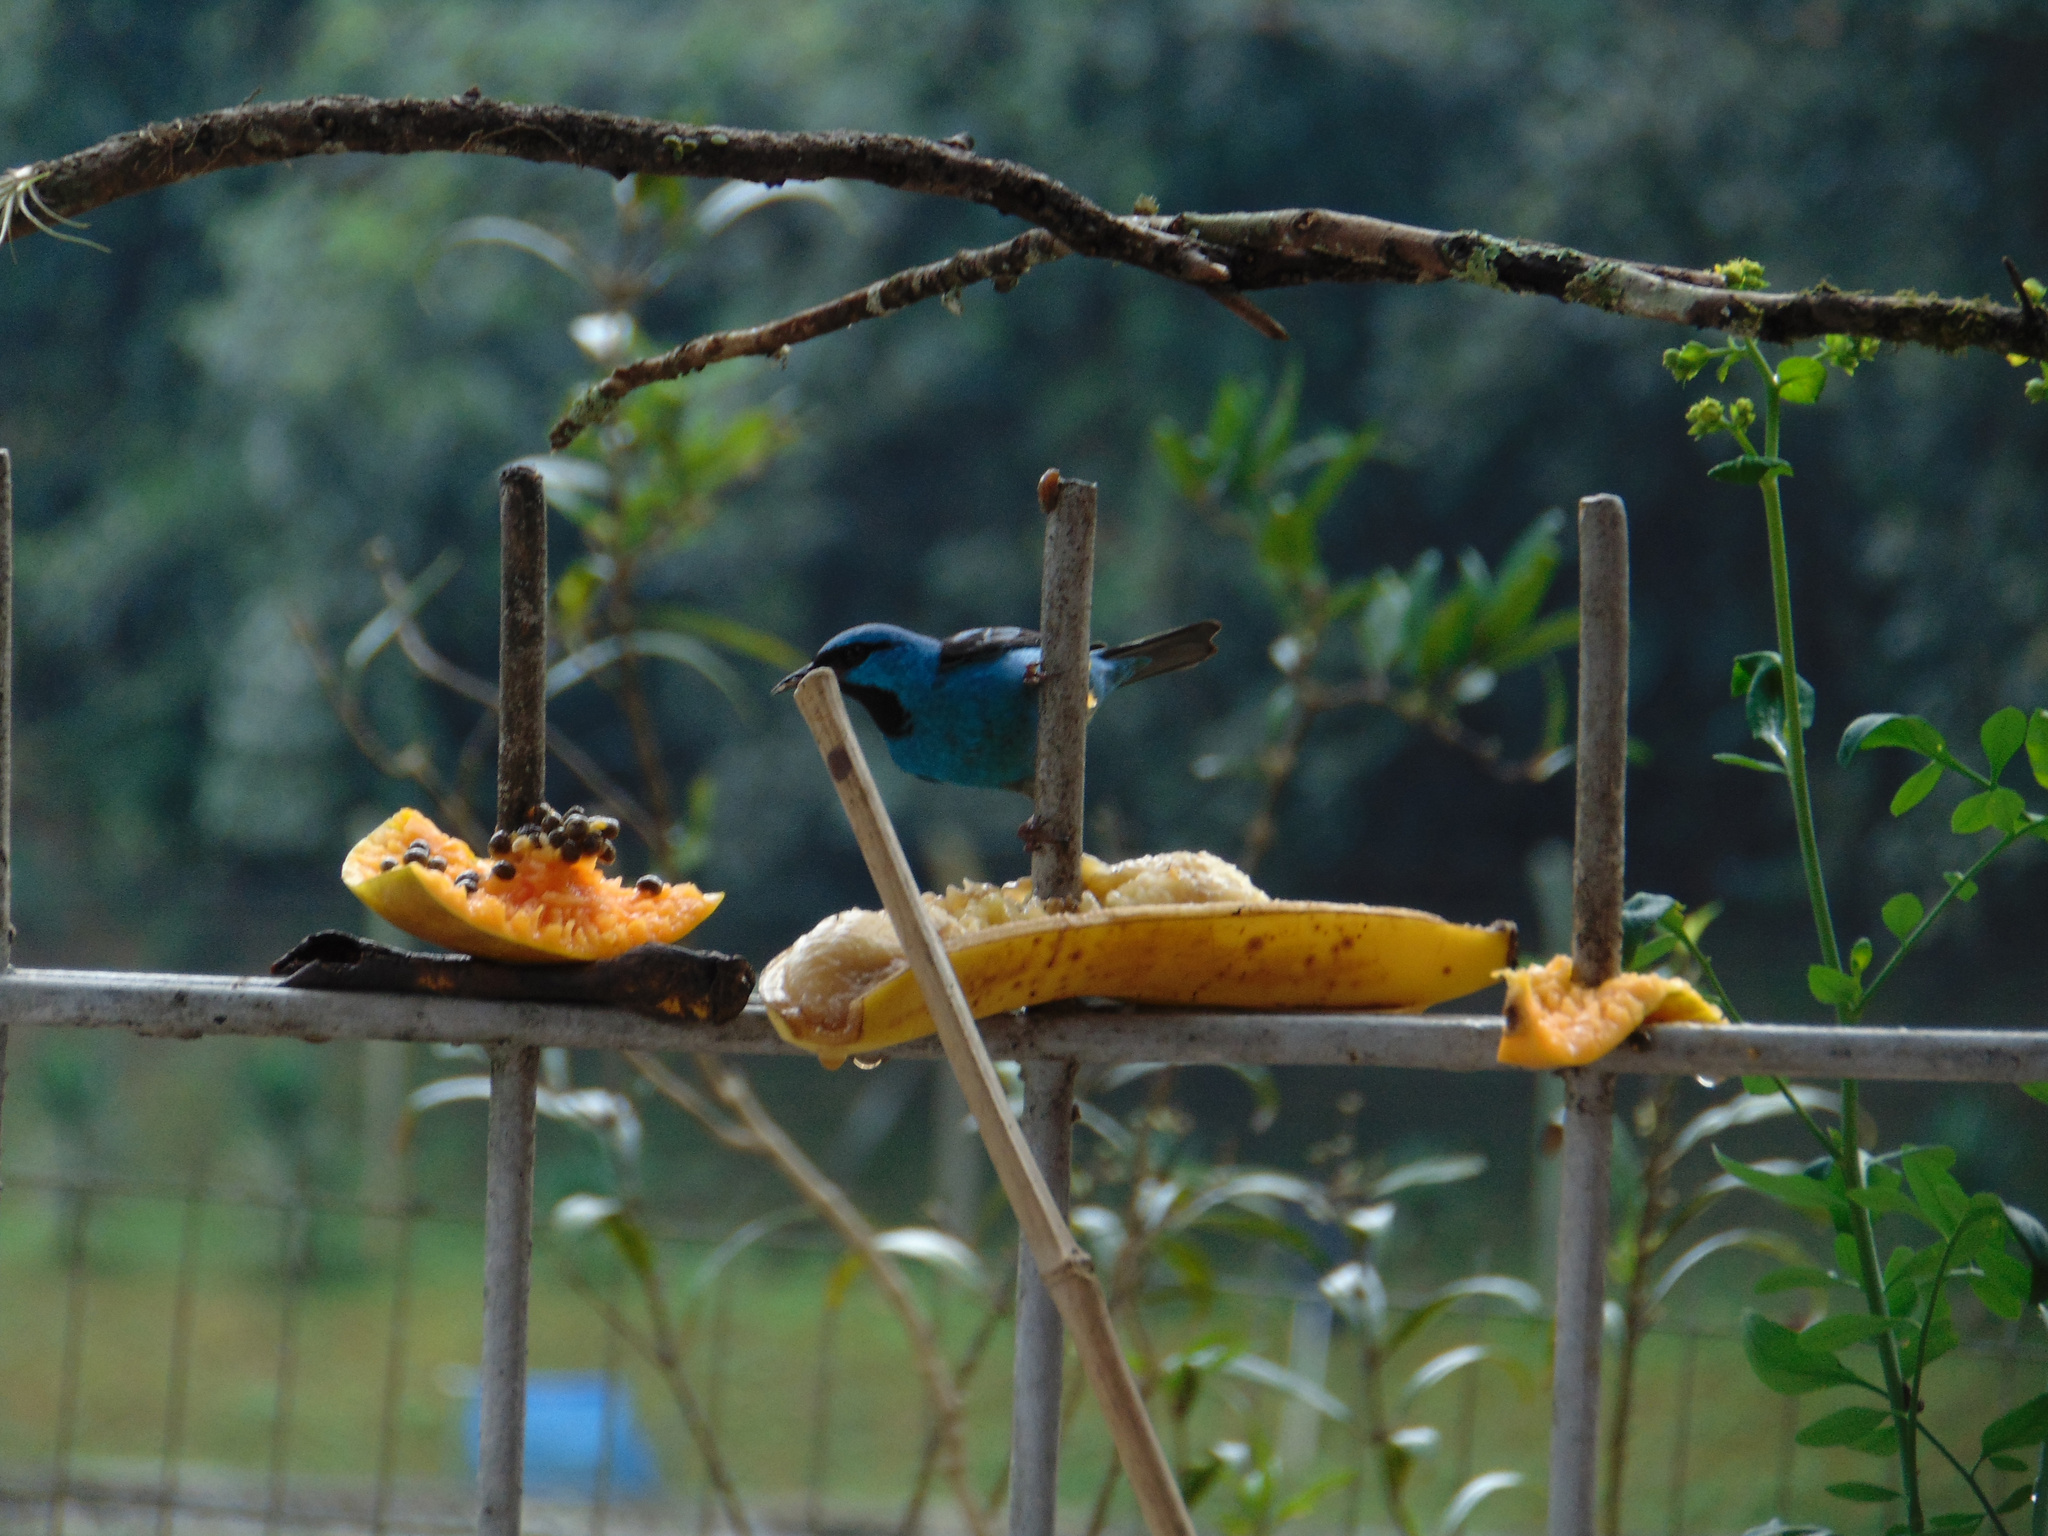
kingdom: Animalia
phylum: Chordata
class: Aves
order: Passeriformes
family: Thraupidae
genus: Dacnis
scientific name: Dacnis cayana
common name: Blue dacnis
